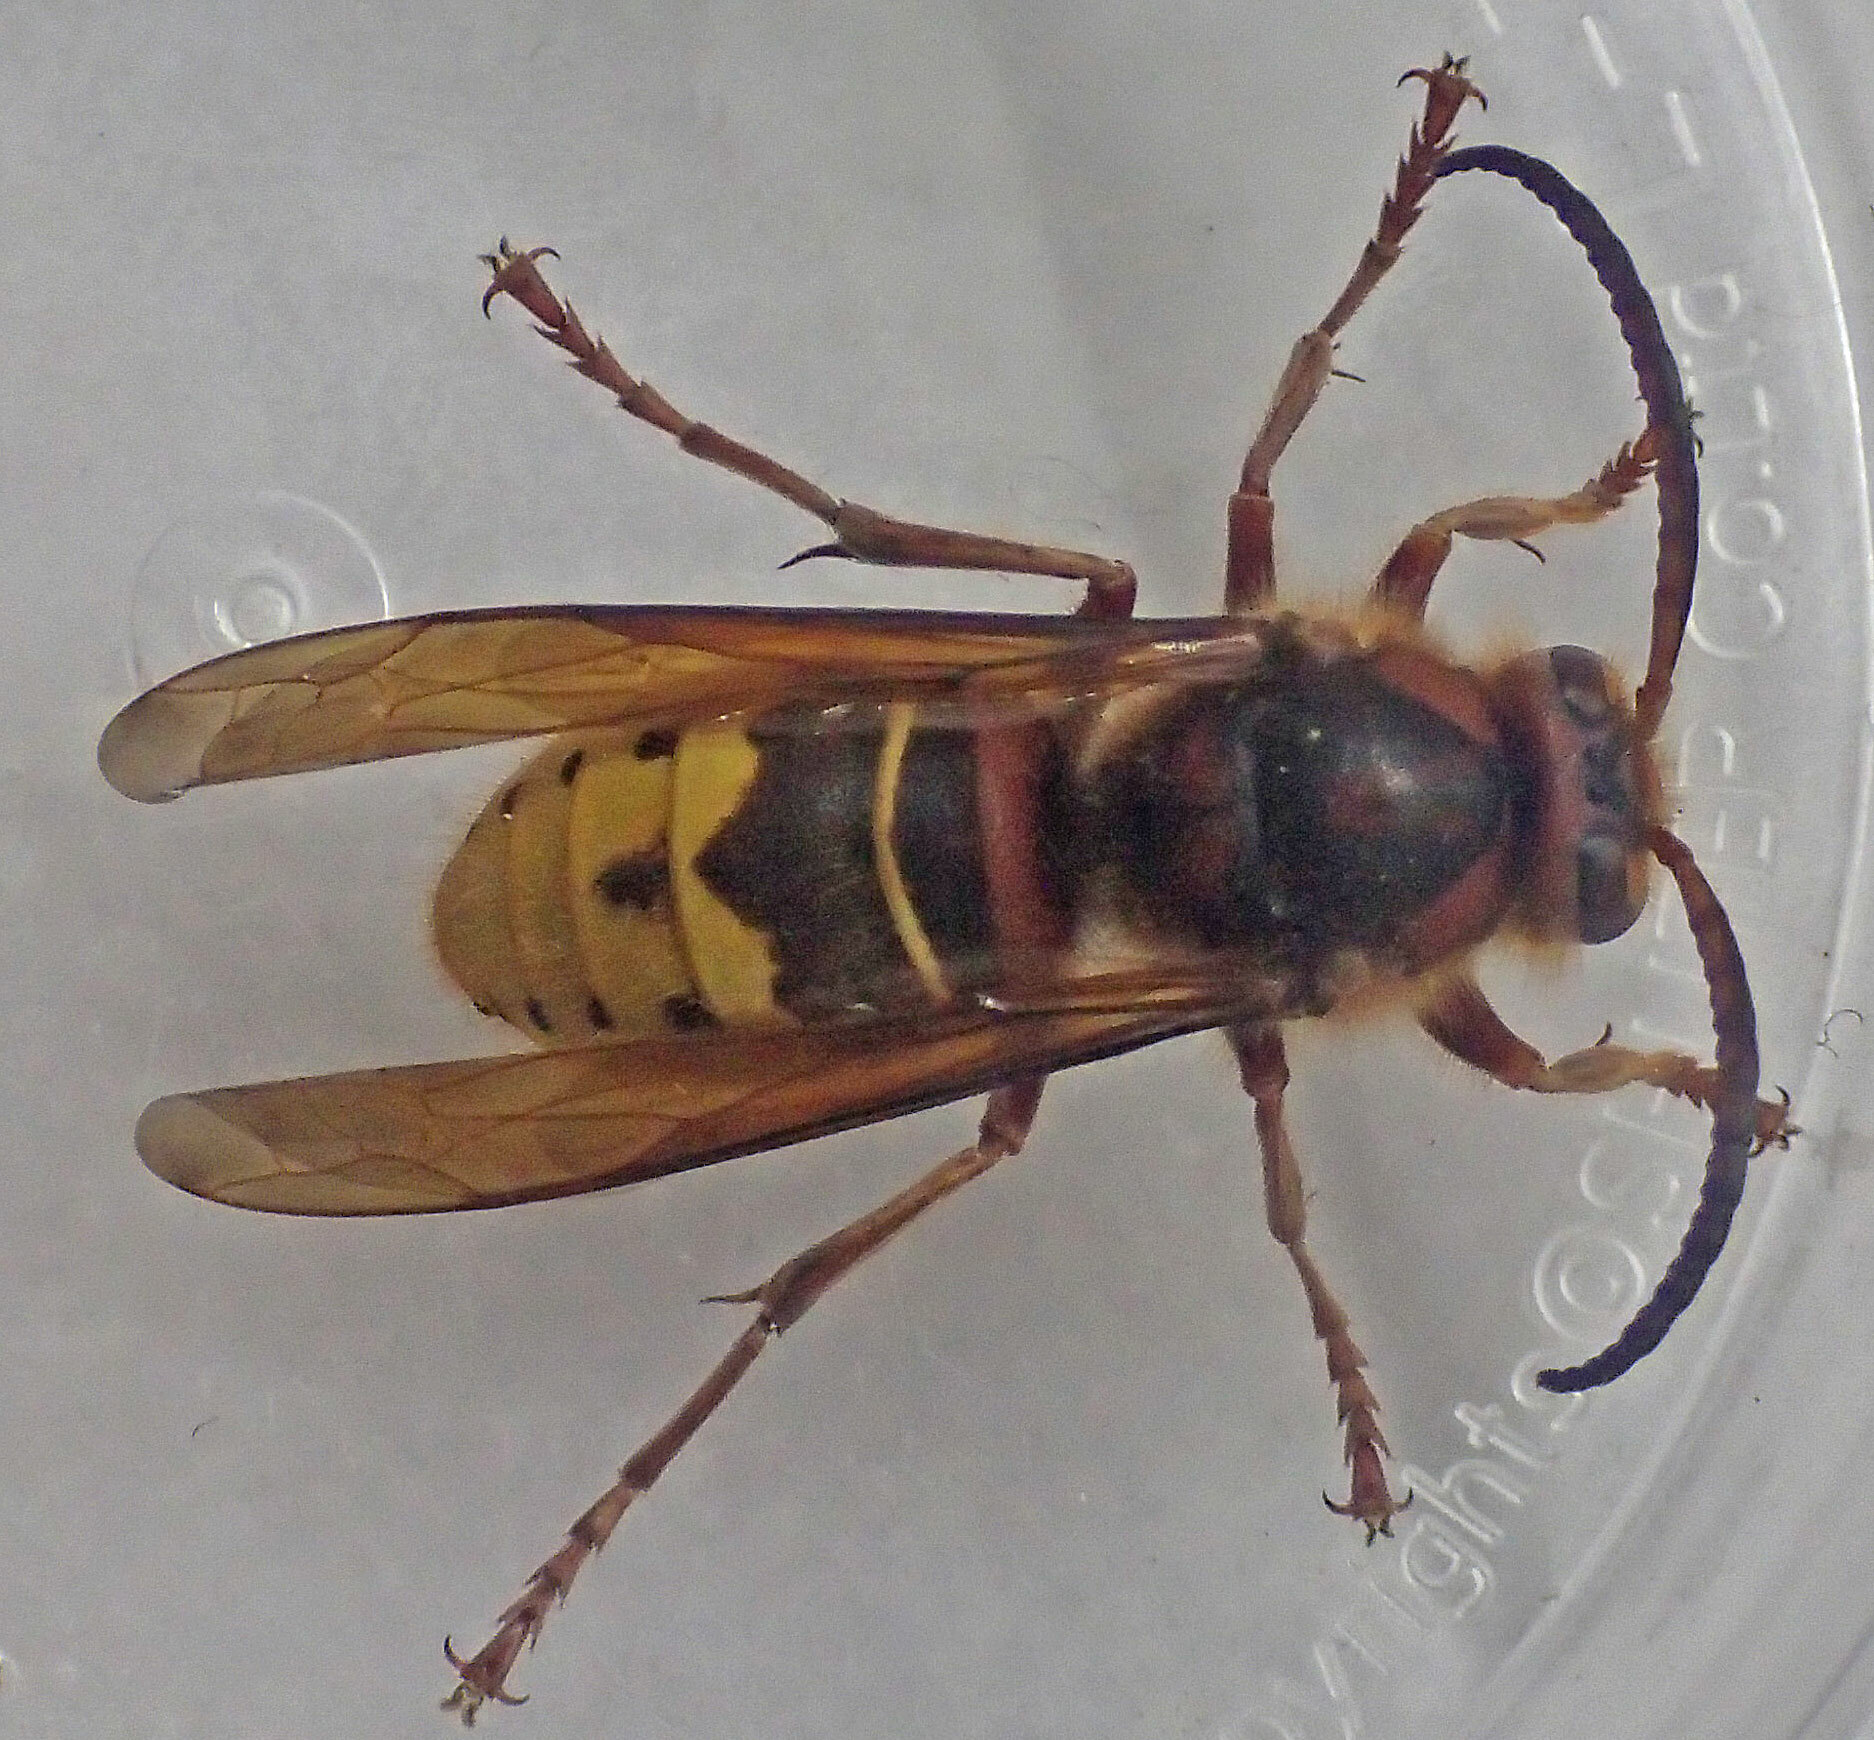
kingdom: Animalia
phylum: Arthropoda
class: Insecta
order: Hymenoptera
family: Vespidae
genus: Vespa
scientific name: Vespa crabro
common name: Hornet
